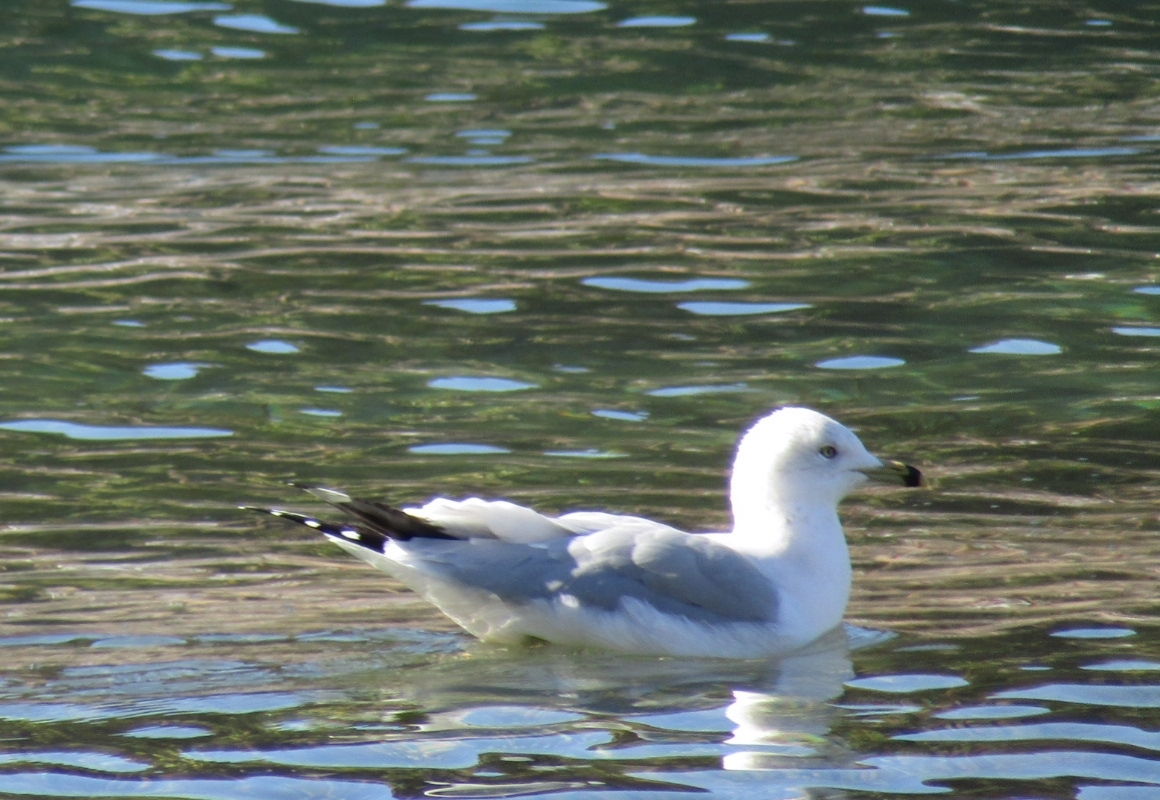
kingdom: Animalia
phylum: Chordata
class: Aves
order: Charadriiformes
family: Laridae
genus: Larus
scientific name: Larus delawarensis
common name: Ring-billed gull
